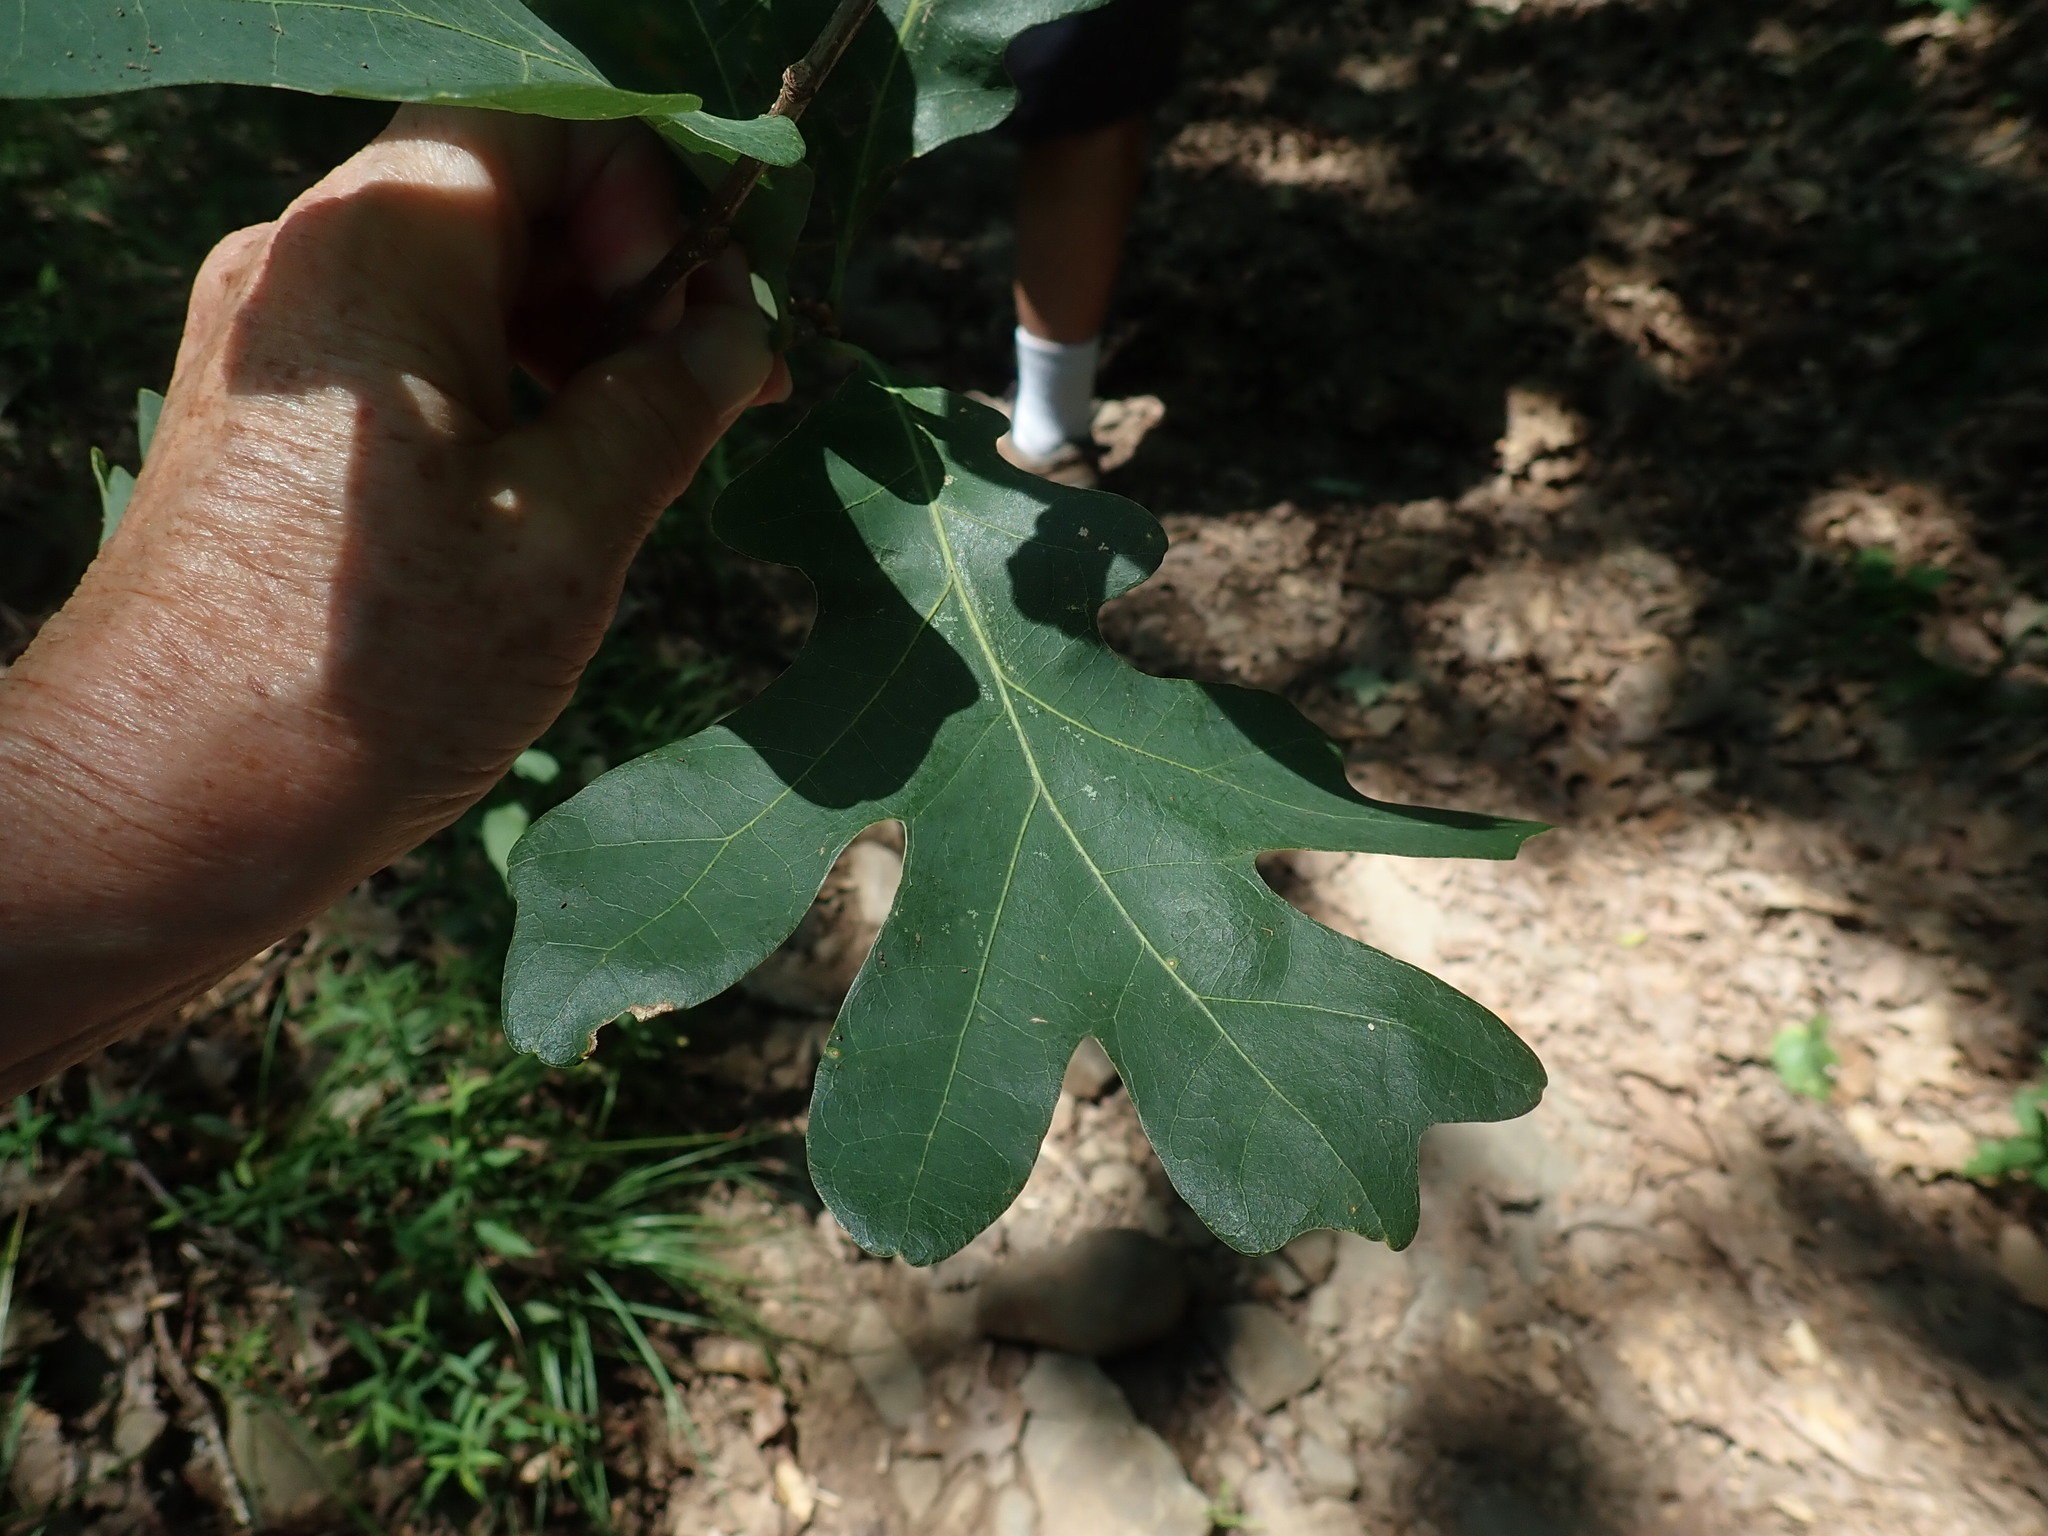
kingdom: Plantae
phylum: Tracheophyta
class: Magnoliopsida
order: Fagales
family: Fagaceae
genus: Quercus
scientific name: Quercus alba
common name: White oak
